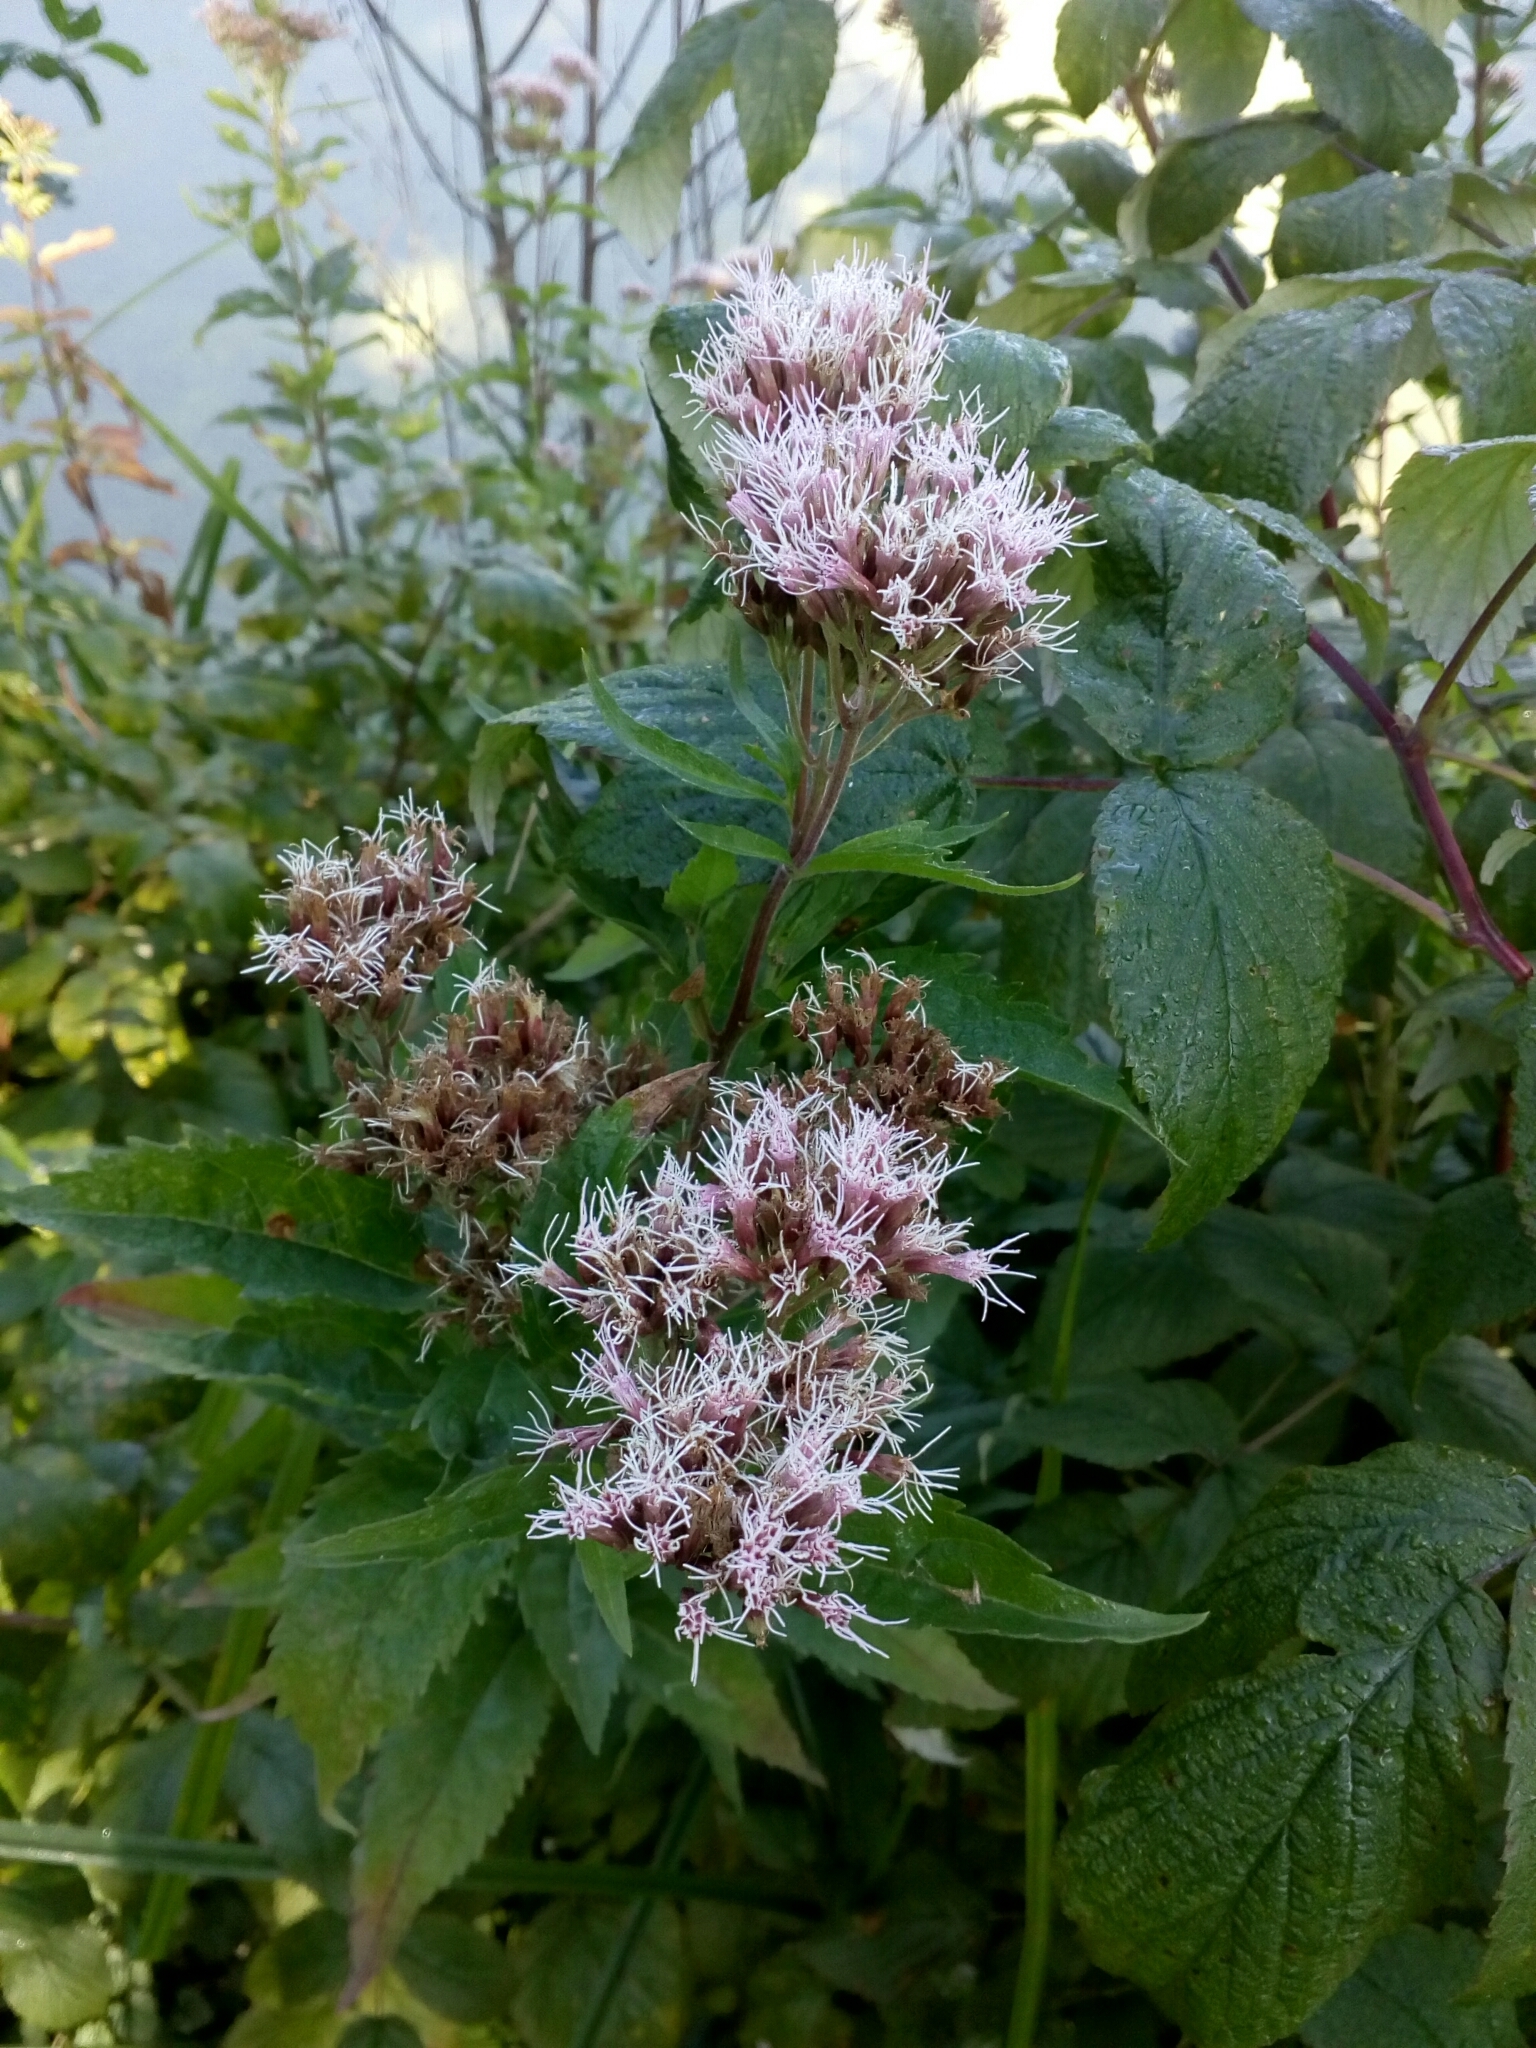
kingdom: Plantae
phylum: Tracheophyta
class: Magnoliopsida
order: Asterales
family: Asteraceae
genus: Eupatorium
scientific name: Eupatorium cannabinum
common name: Hemp-agrimony
